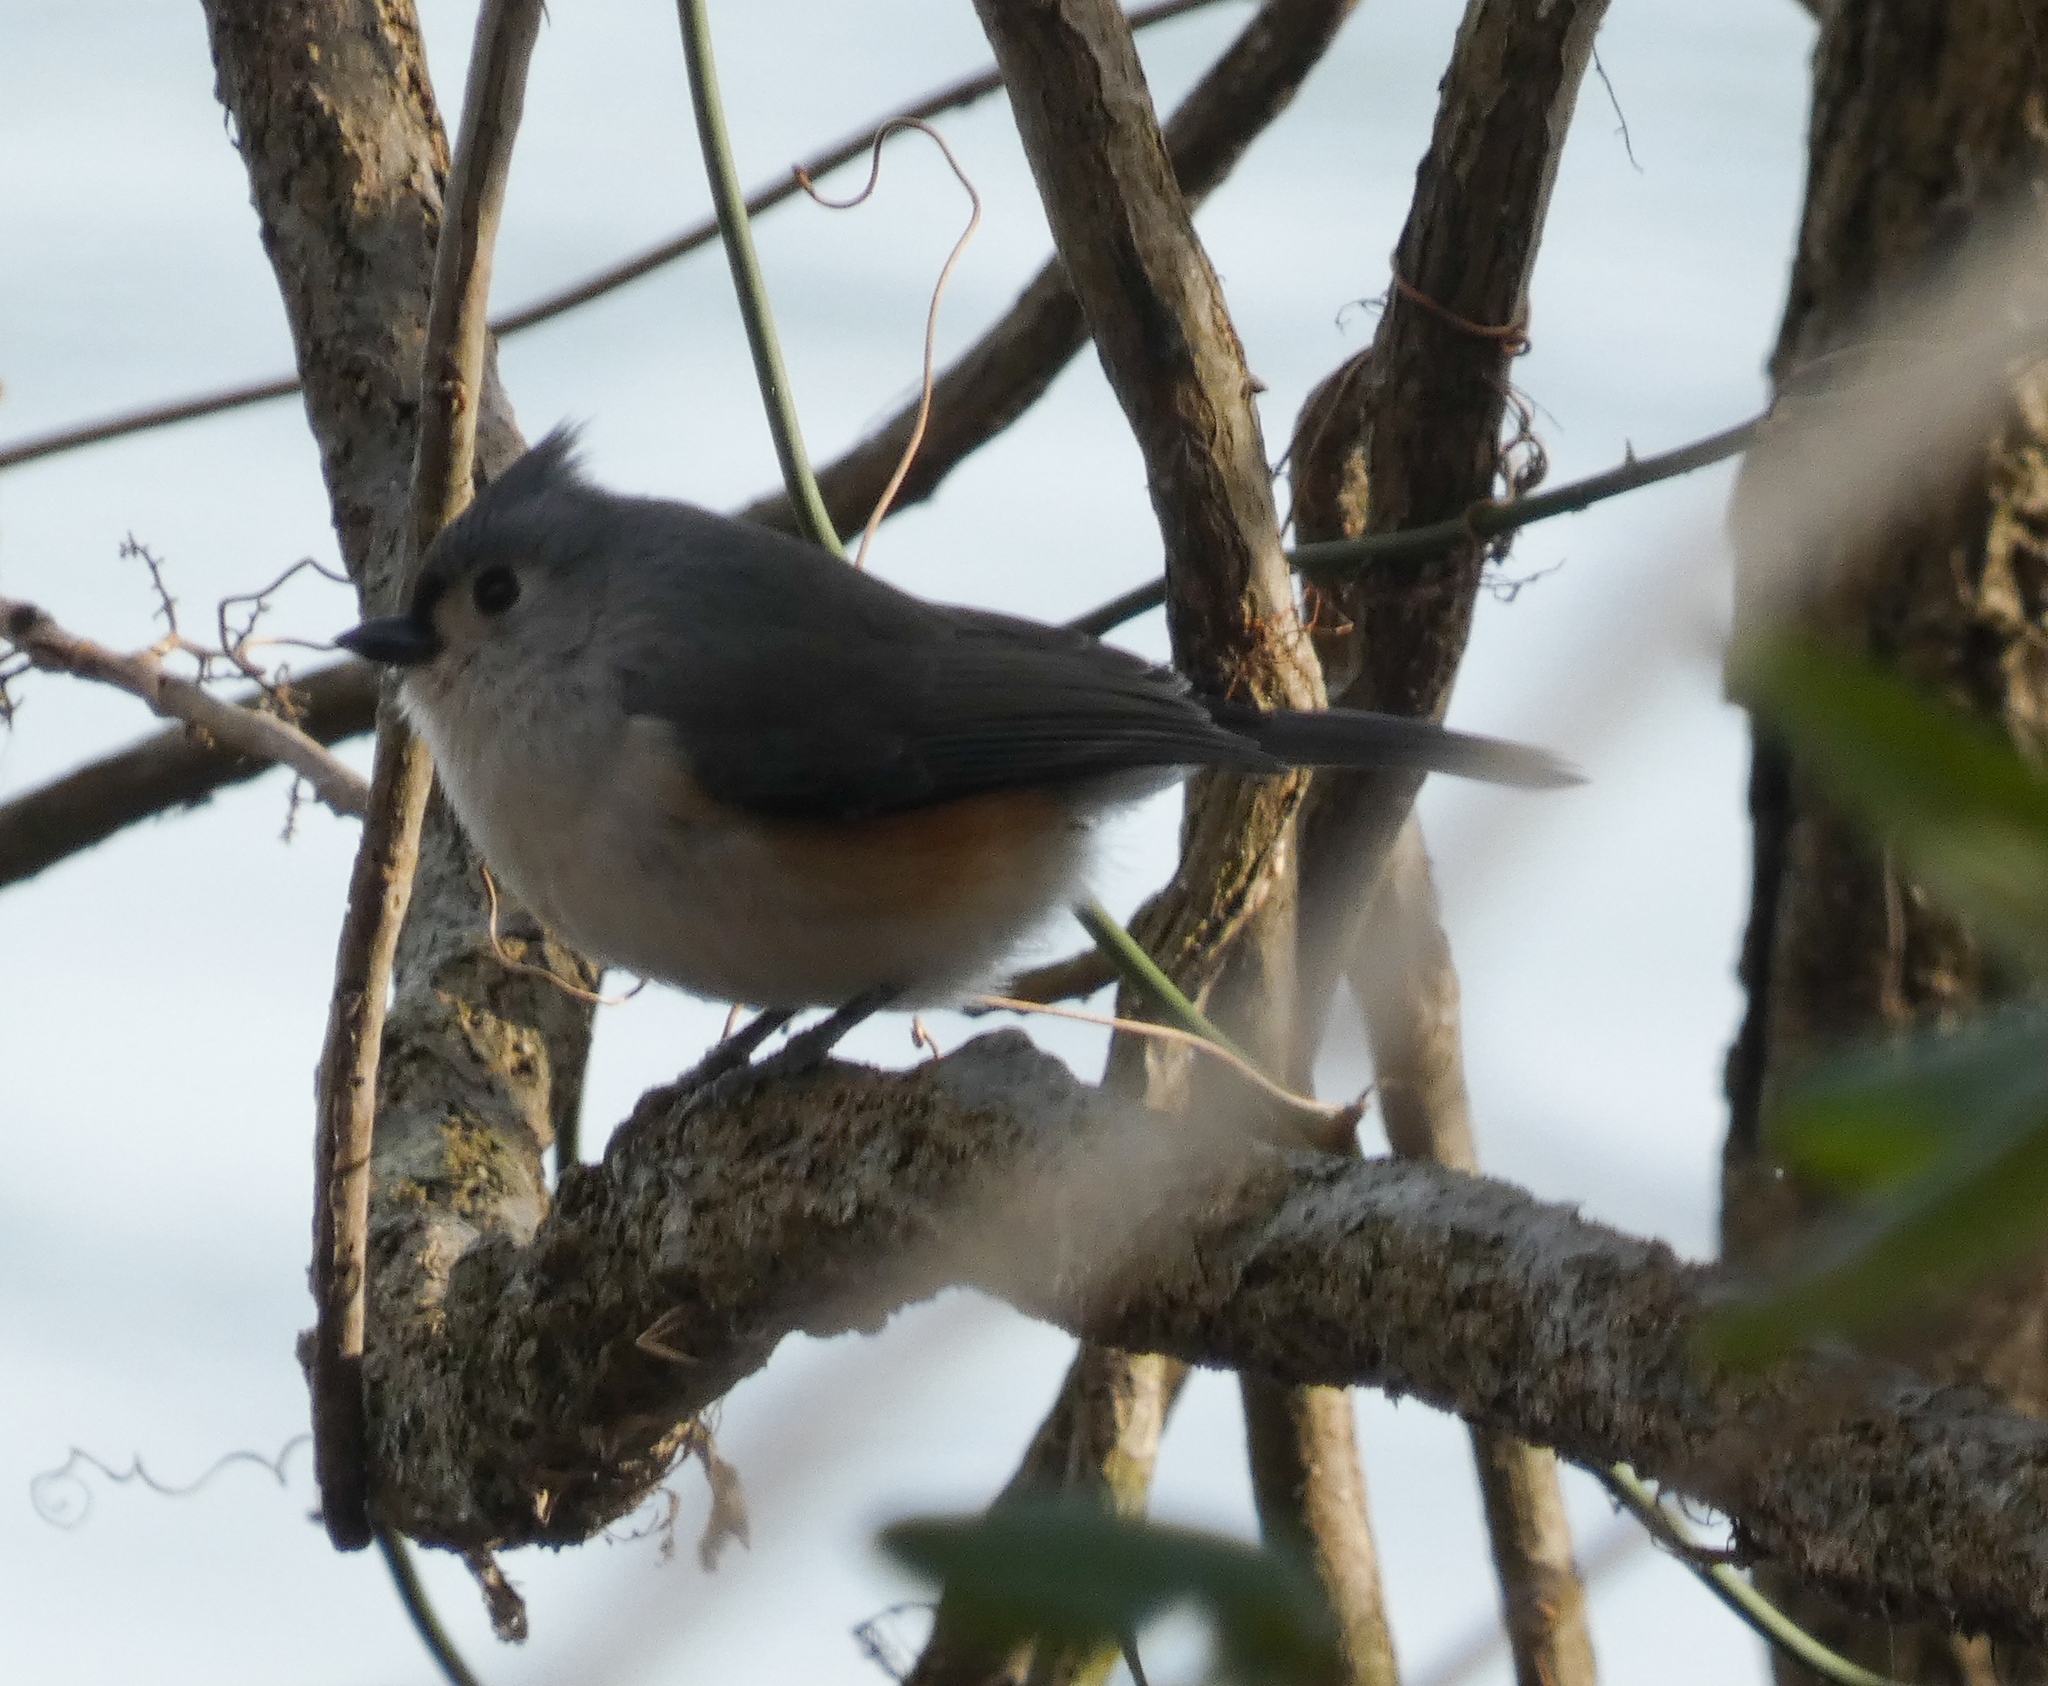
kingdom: Animalia
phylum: Chordata
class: Aves
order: Passeriformes
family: Paridae
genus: Baeolophus
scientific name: Baeolophus bicolor
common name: Tufted titmouse
